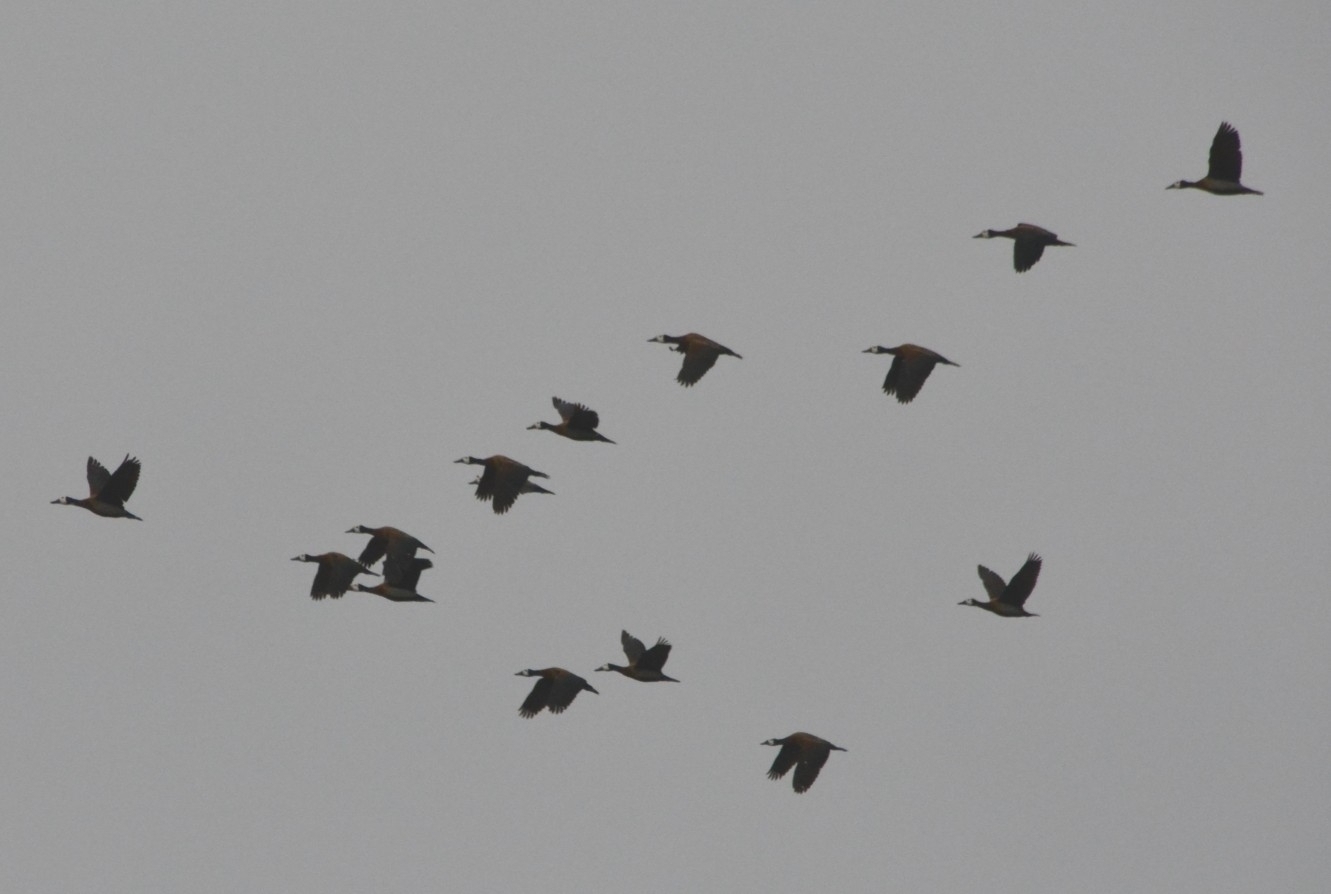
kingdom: Animalia
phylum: Chordata
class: Aves
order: Anseriformes
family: Anatidae
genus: Dendrocygna
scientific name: Dendrocygna viduata
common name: White-faced whistling duck
